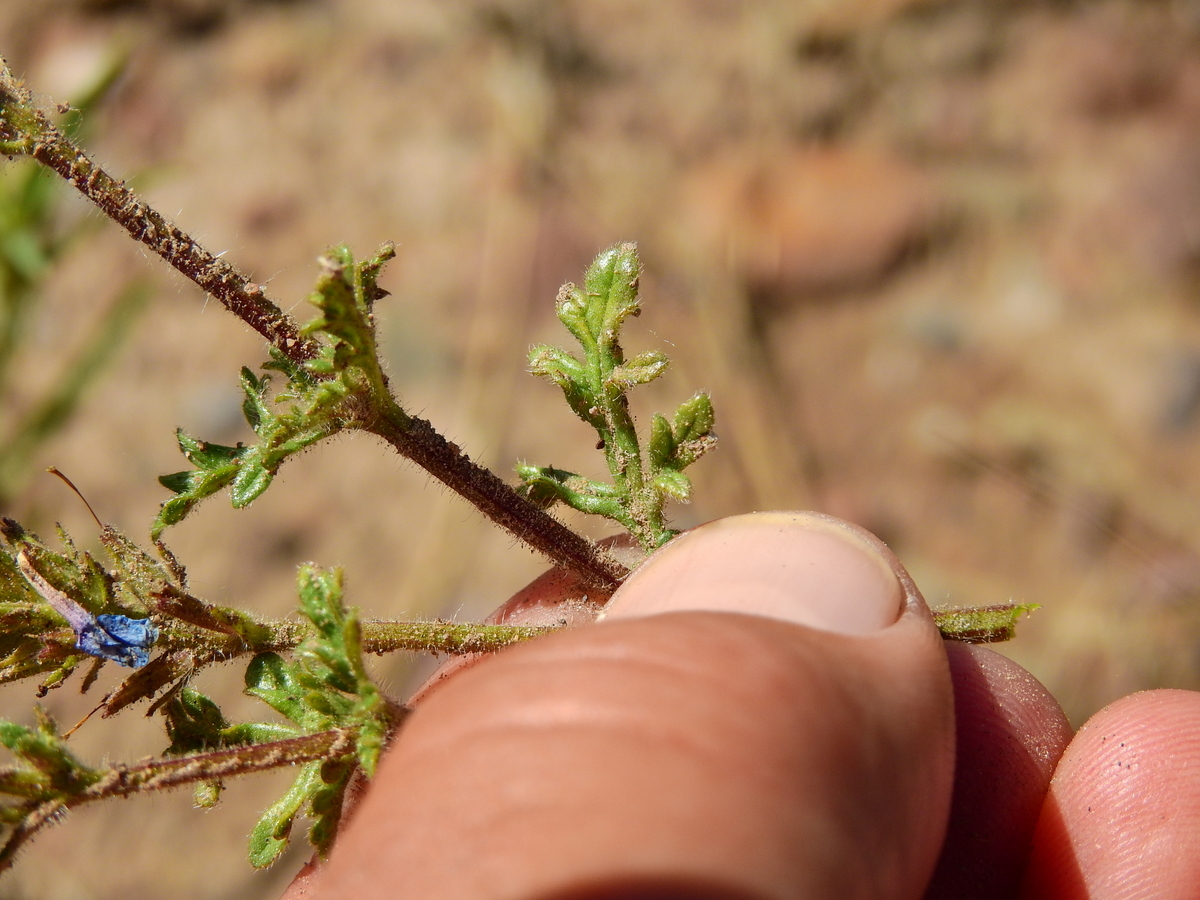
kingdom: Plantae
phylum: Tracheophyta
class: Magnoliopsida
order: Lamiales
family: Verbenaceae
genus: Verbena
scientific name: Verbena venturii
